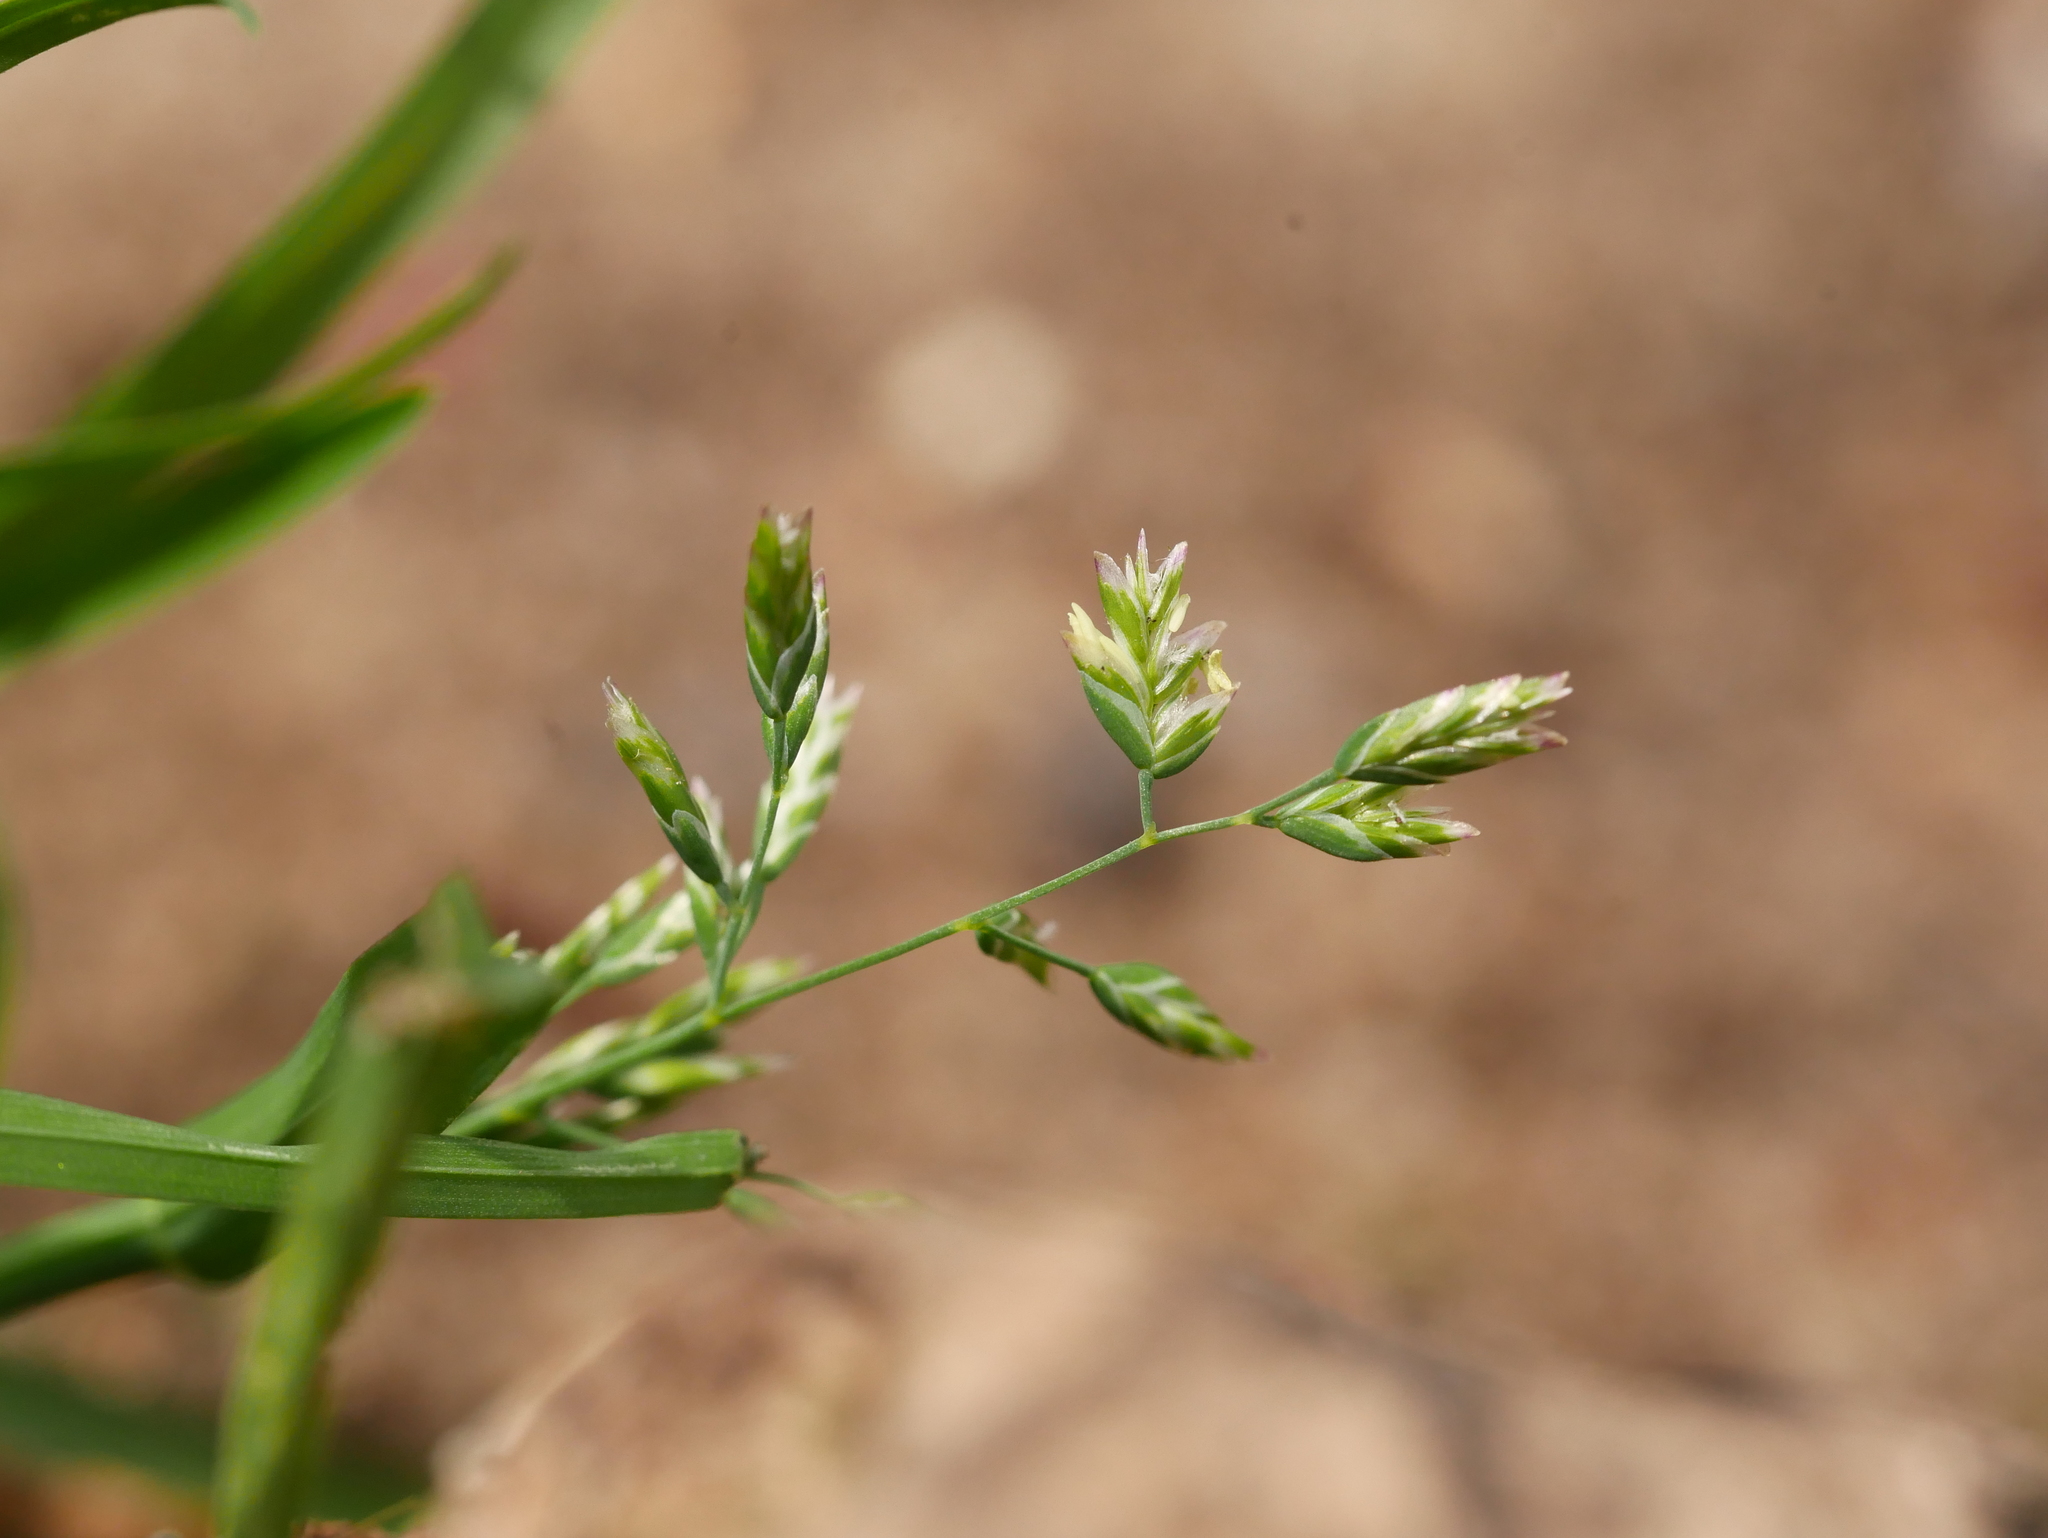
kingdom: Plantae
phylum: Tracheophyta
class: Liliopsida
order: Poales
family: Poaceae
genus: Poa
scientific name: Poa annua
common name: Annual bluegrass
